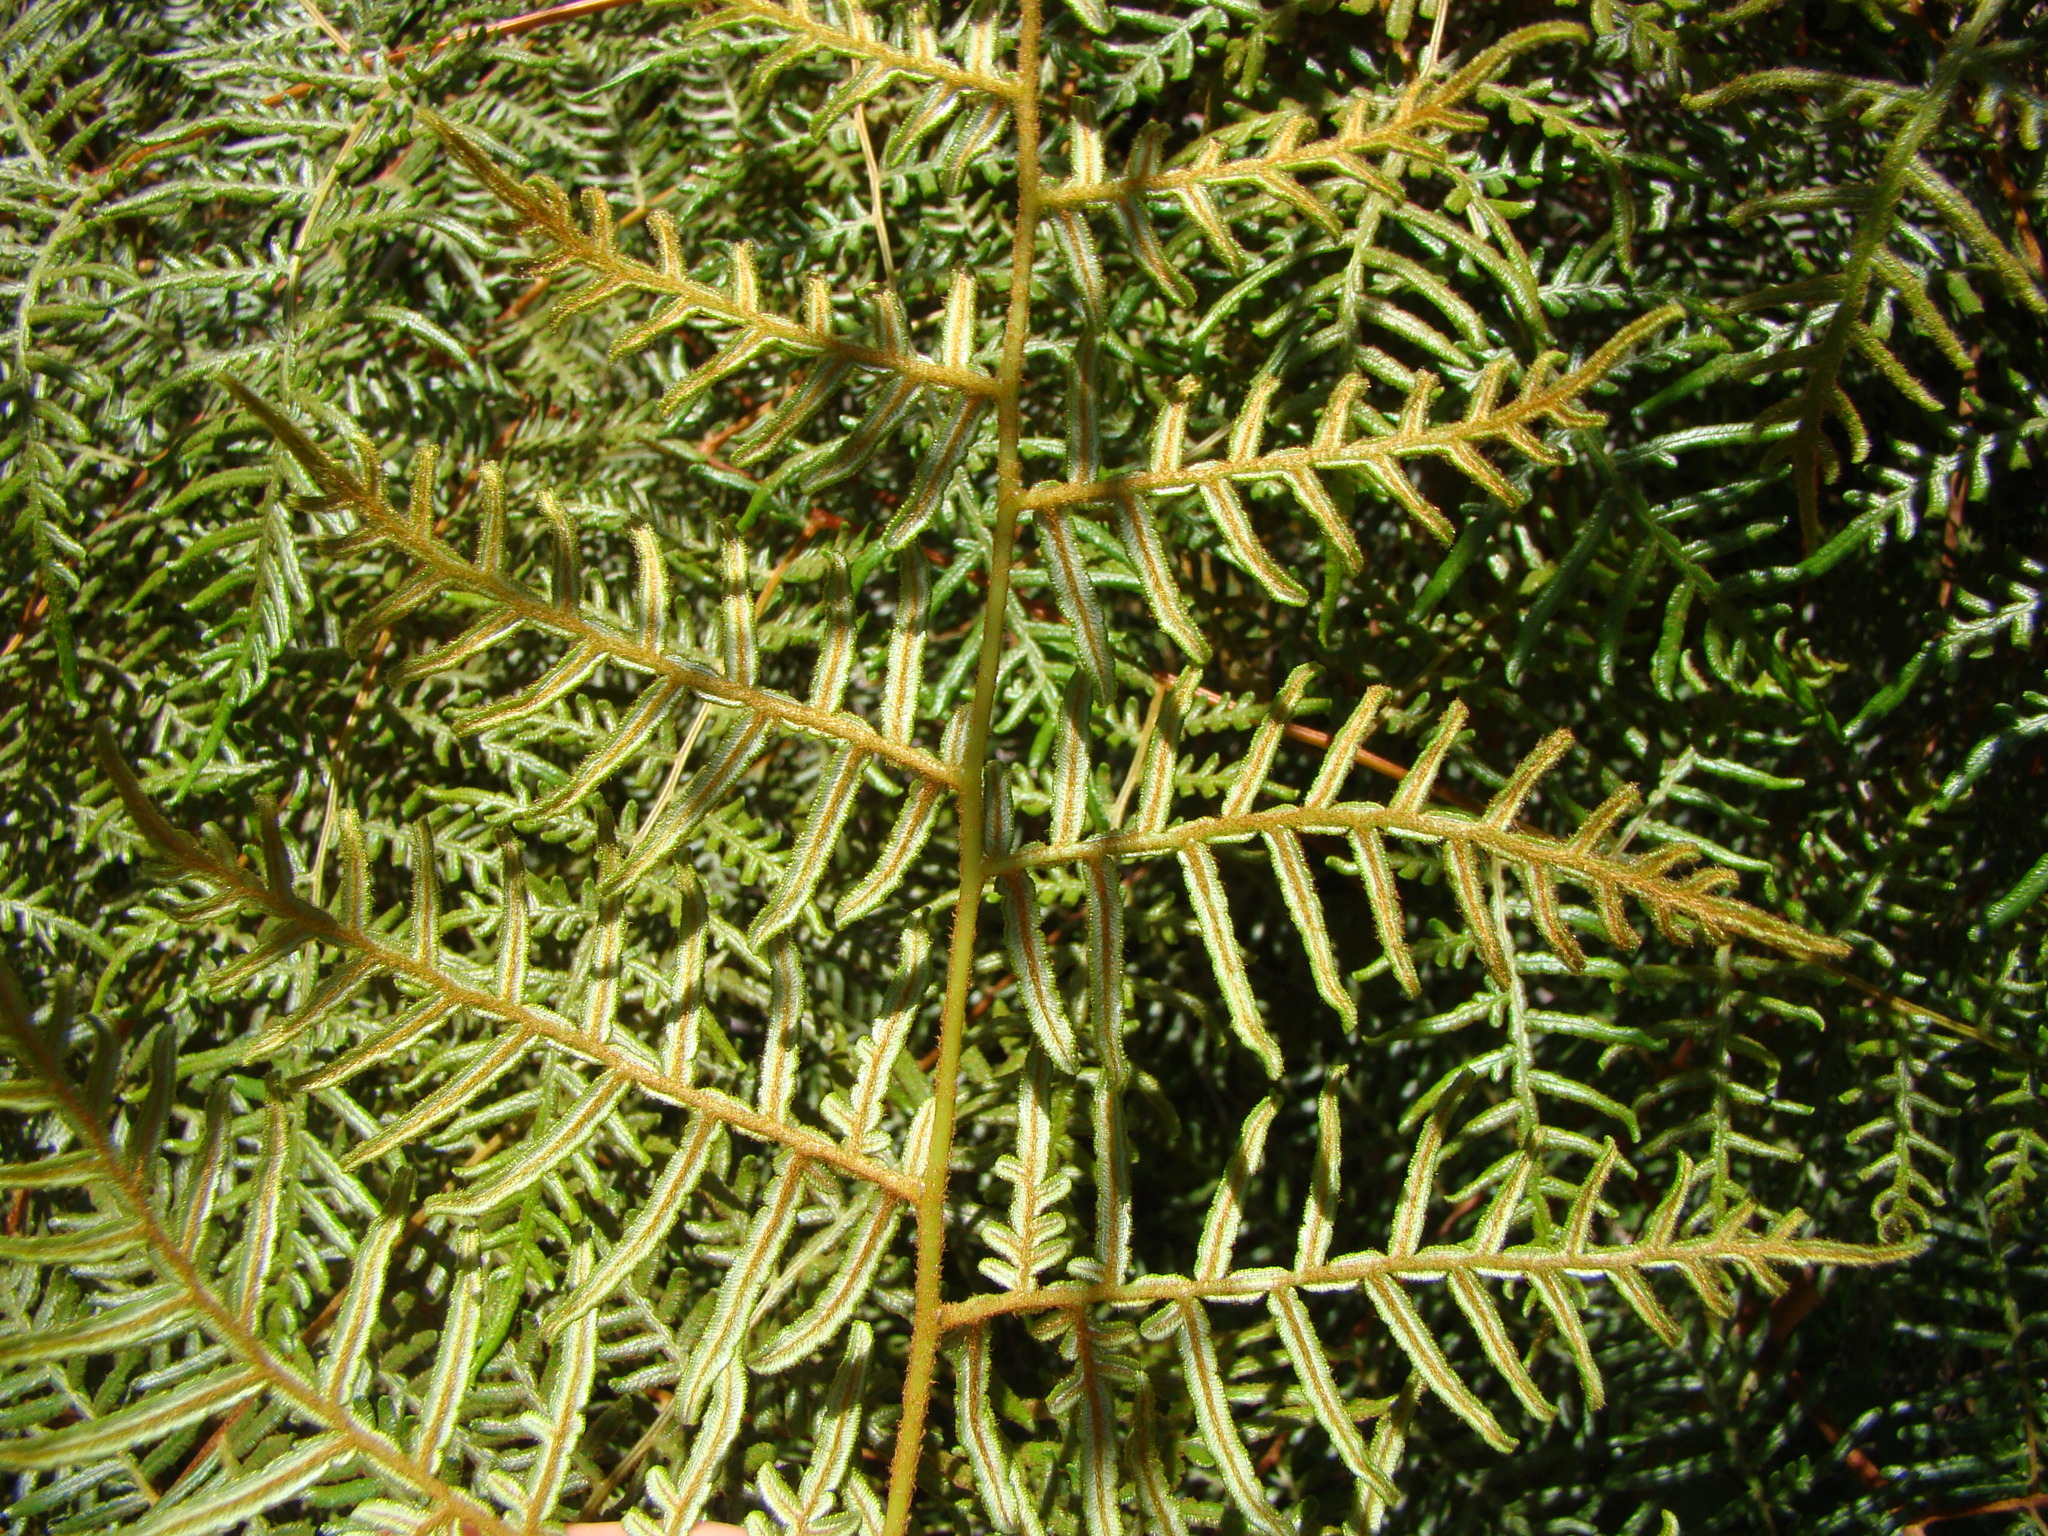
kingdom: Plantae
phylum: Tracheophyta
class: Polypodiopsida
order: Polypodiales
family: Dennstaedtiaceae
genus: Pteridium
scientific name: Pteridium esculentum
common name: Bracken fern
